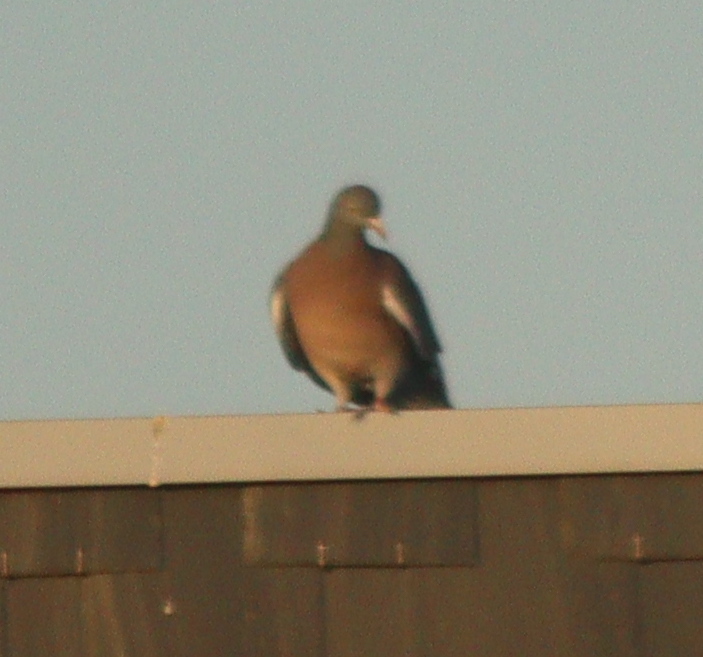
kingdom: Animalia
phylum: Chordata
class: Aves
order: Columbiformes
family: Columbidae
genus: Columba
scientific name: Columba palumbus
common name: Common wood pigeon
